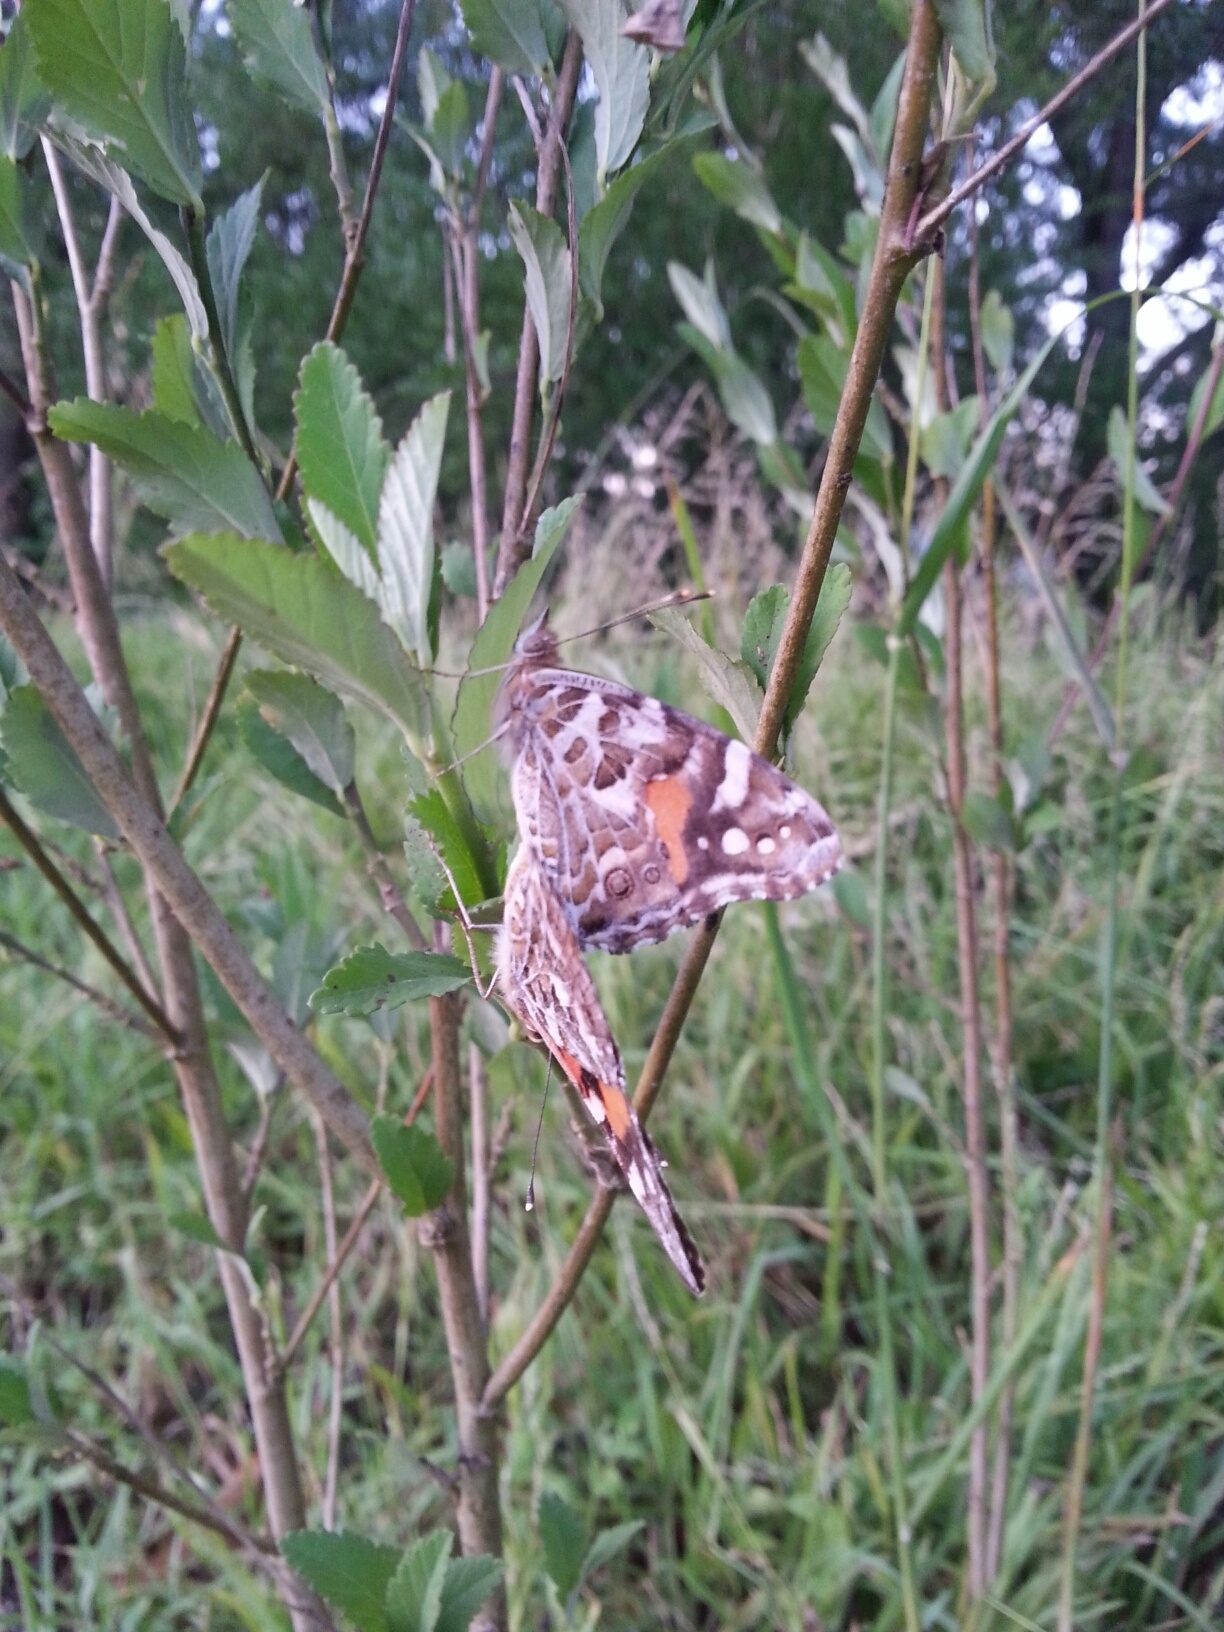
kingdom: Animalia
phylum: Arthropoda
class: Insecta
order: Lepidoptera
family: Nymphalidae
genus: Vanessa
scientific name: Vanessa kershawi
